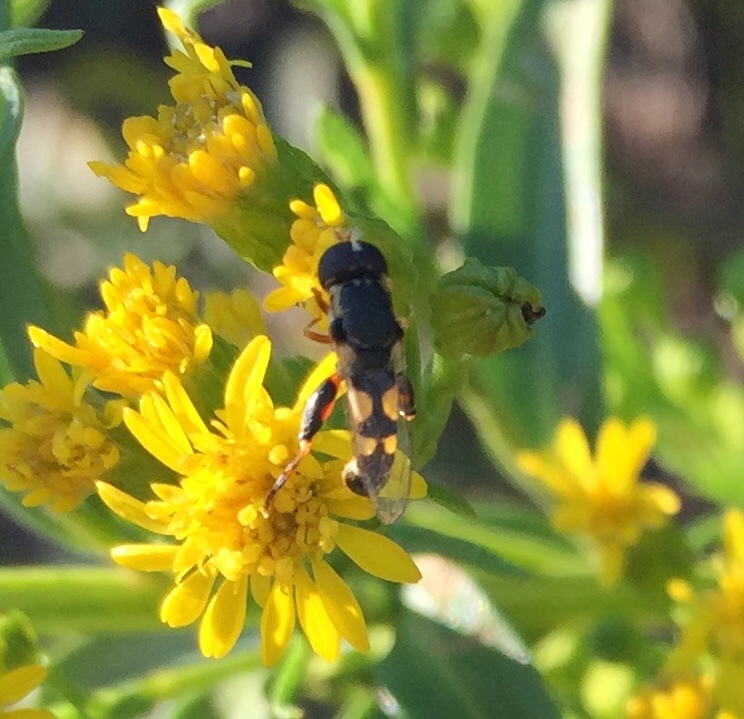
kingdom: Animalia
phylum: Arthropoda
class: Insecta
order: Diptera
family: Syrphidae
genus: Syritta
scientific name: Syritta pipiens
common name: Hover fly
